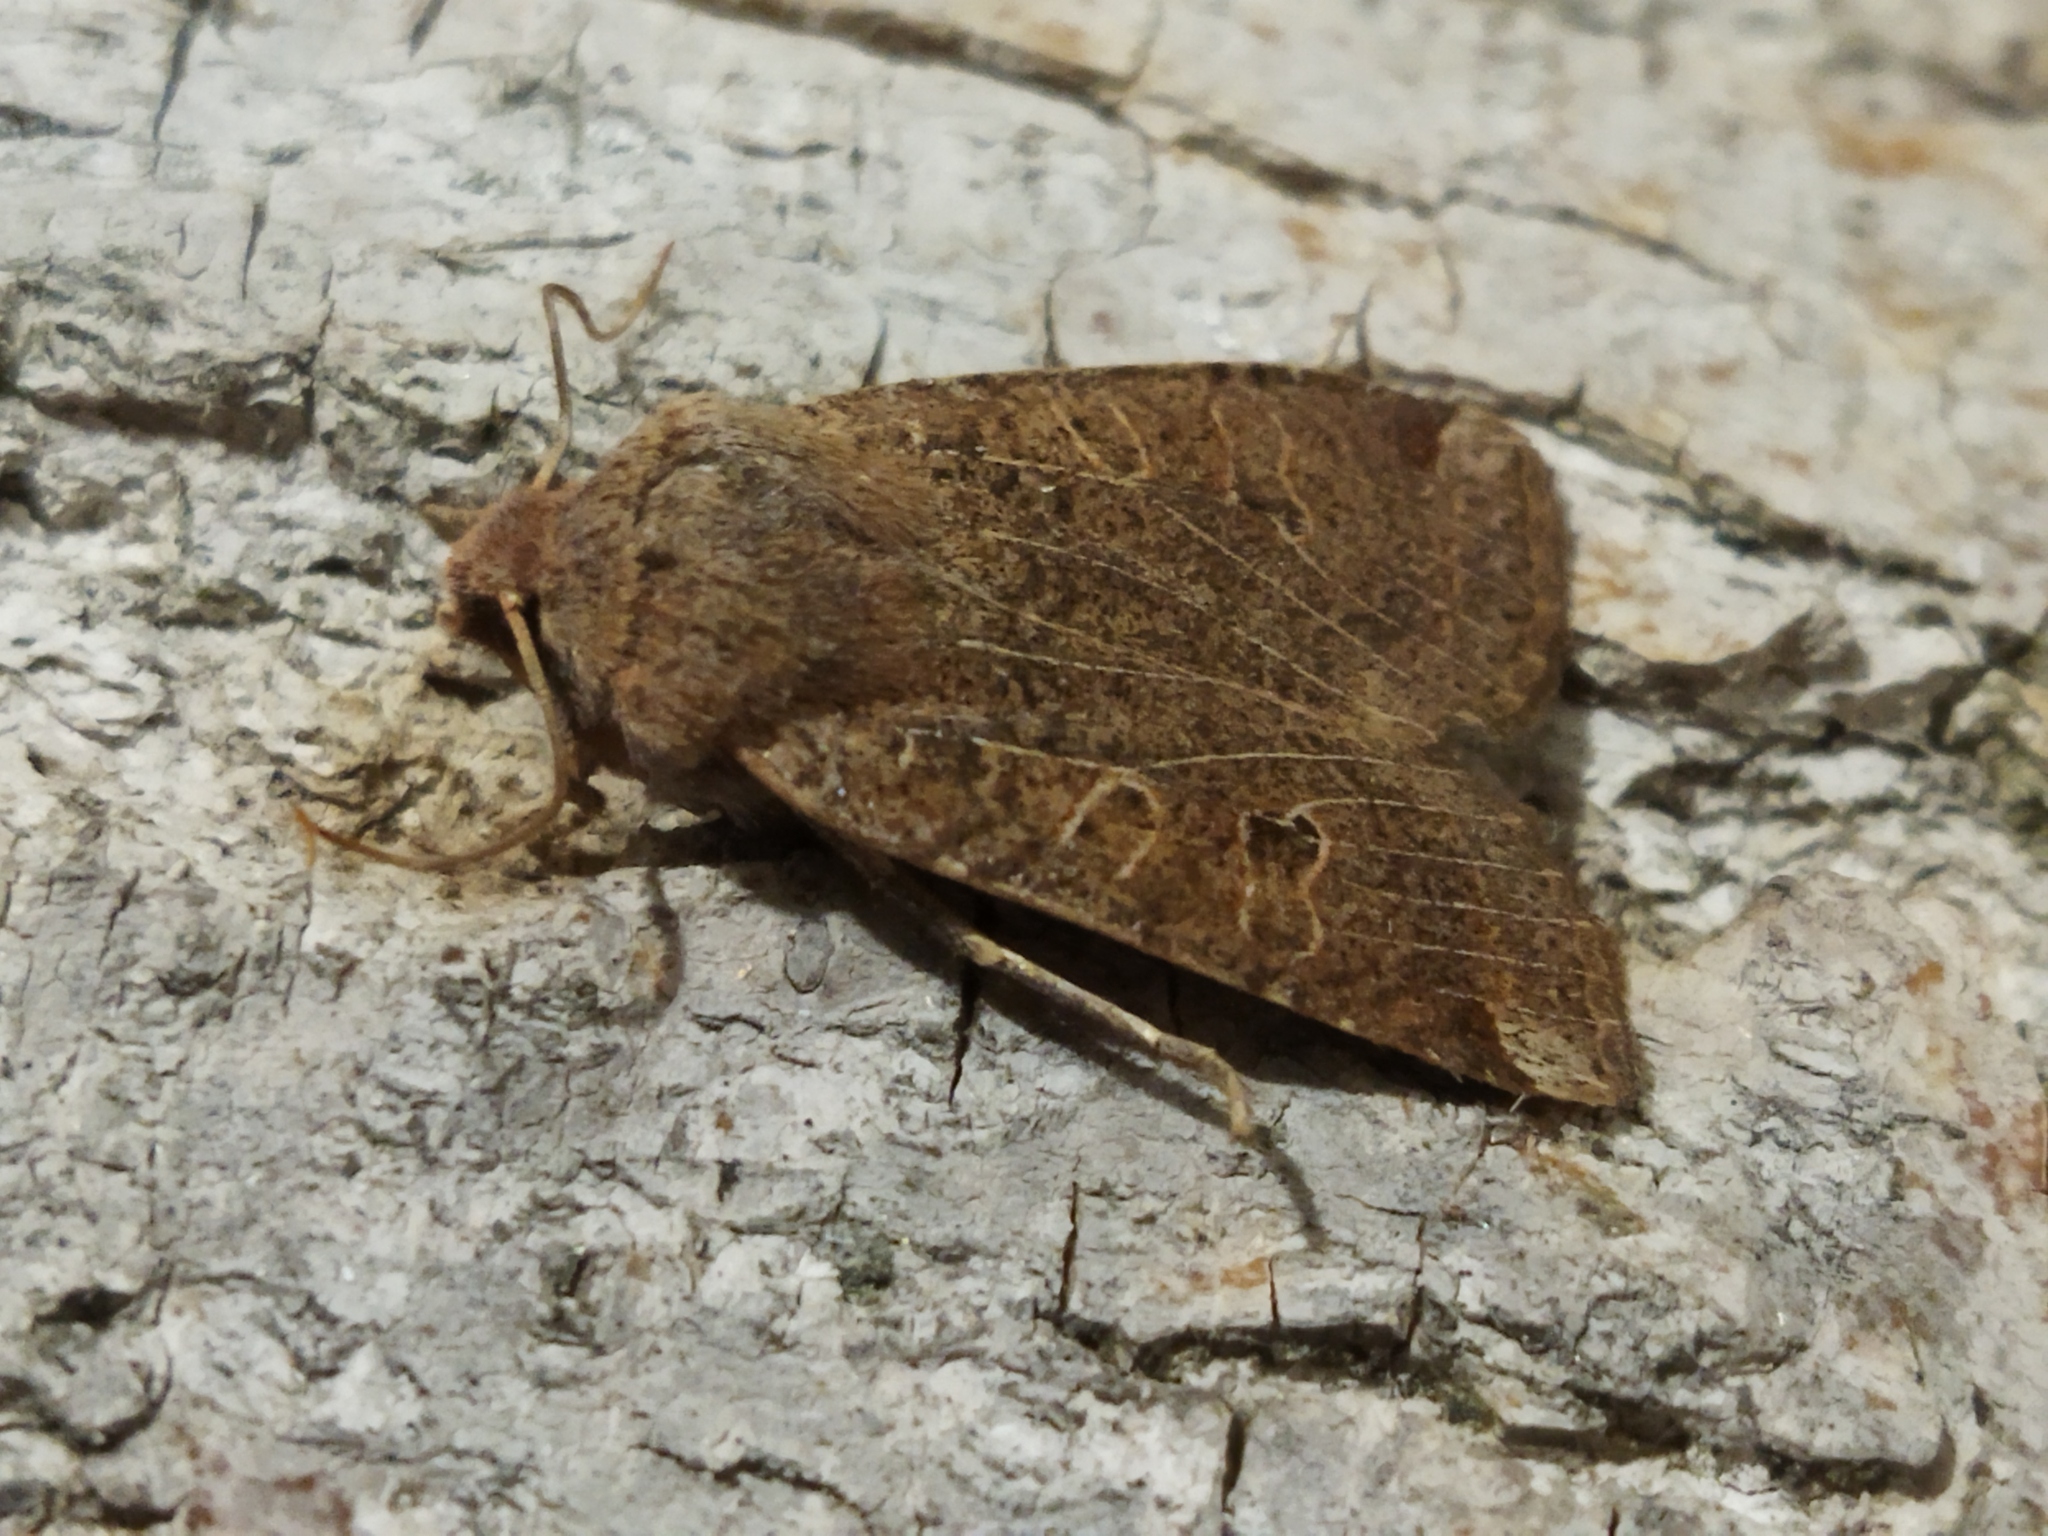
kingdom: Animalia
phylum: Arthropoda
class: Insecta
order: Lepidoptera
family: Noctuidae
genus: Conistra
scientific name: Conistra veronicae
